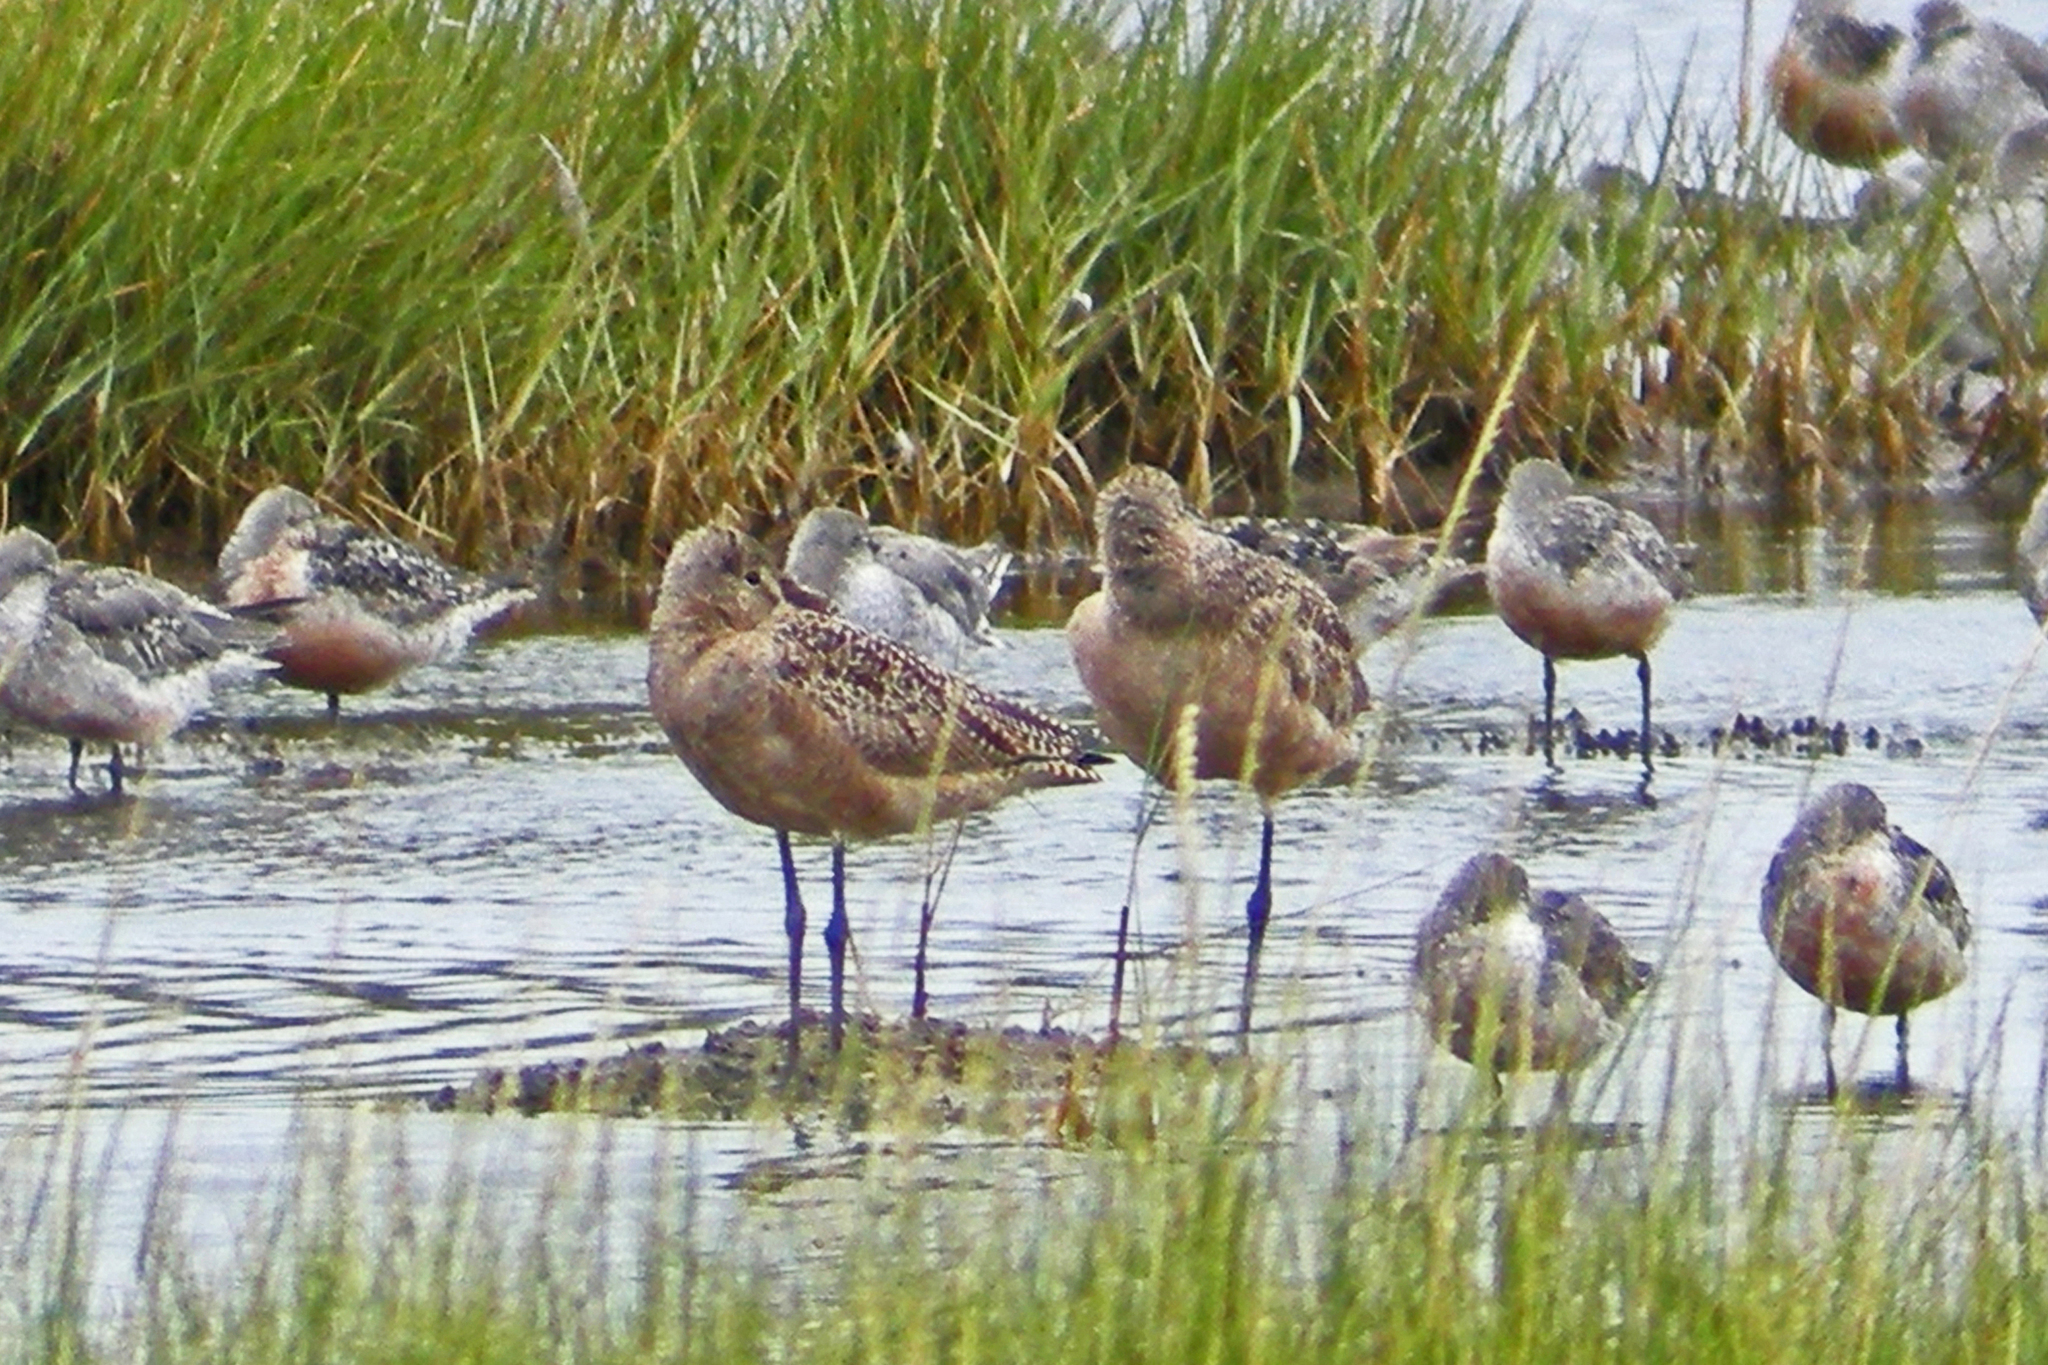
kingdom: Animalia
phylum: Chordata
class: Aves
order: Charadriiformes
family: Scolopacidae
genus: Limosa
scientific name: Limosa fedoa
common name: Marbled godwit
